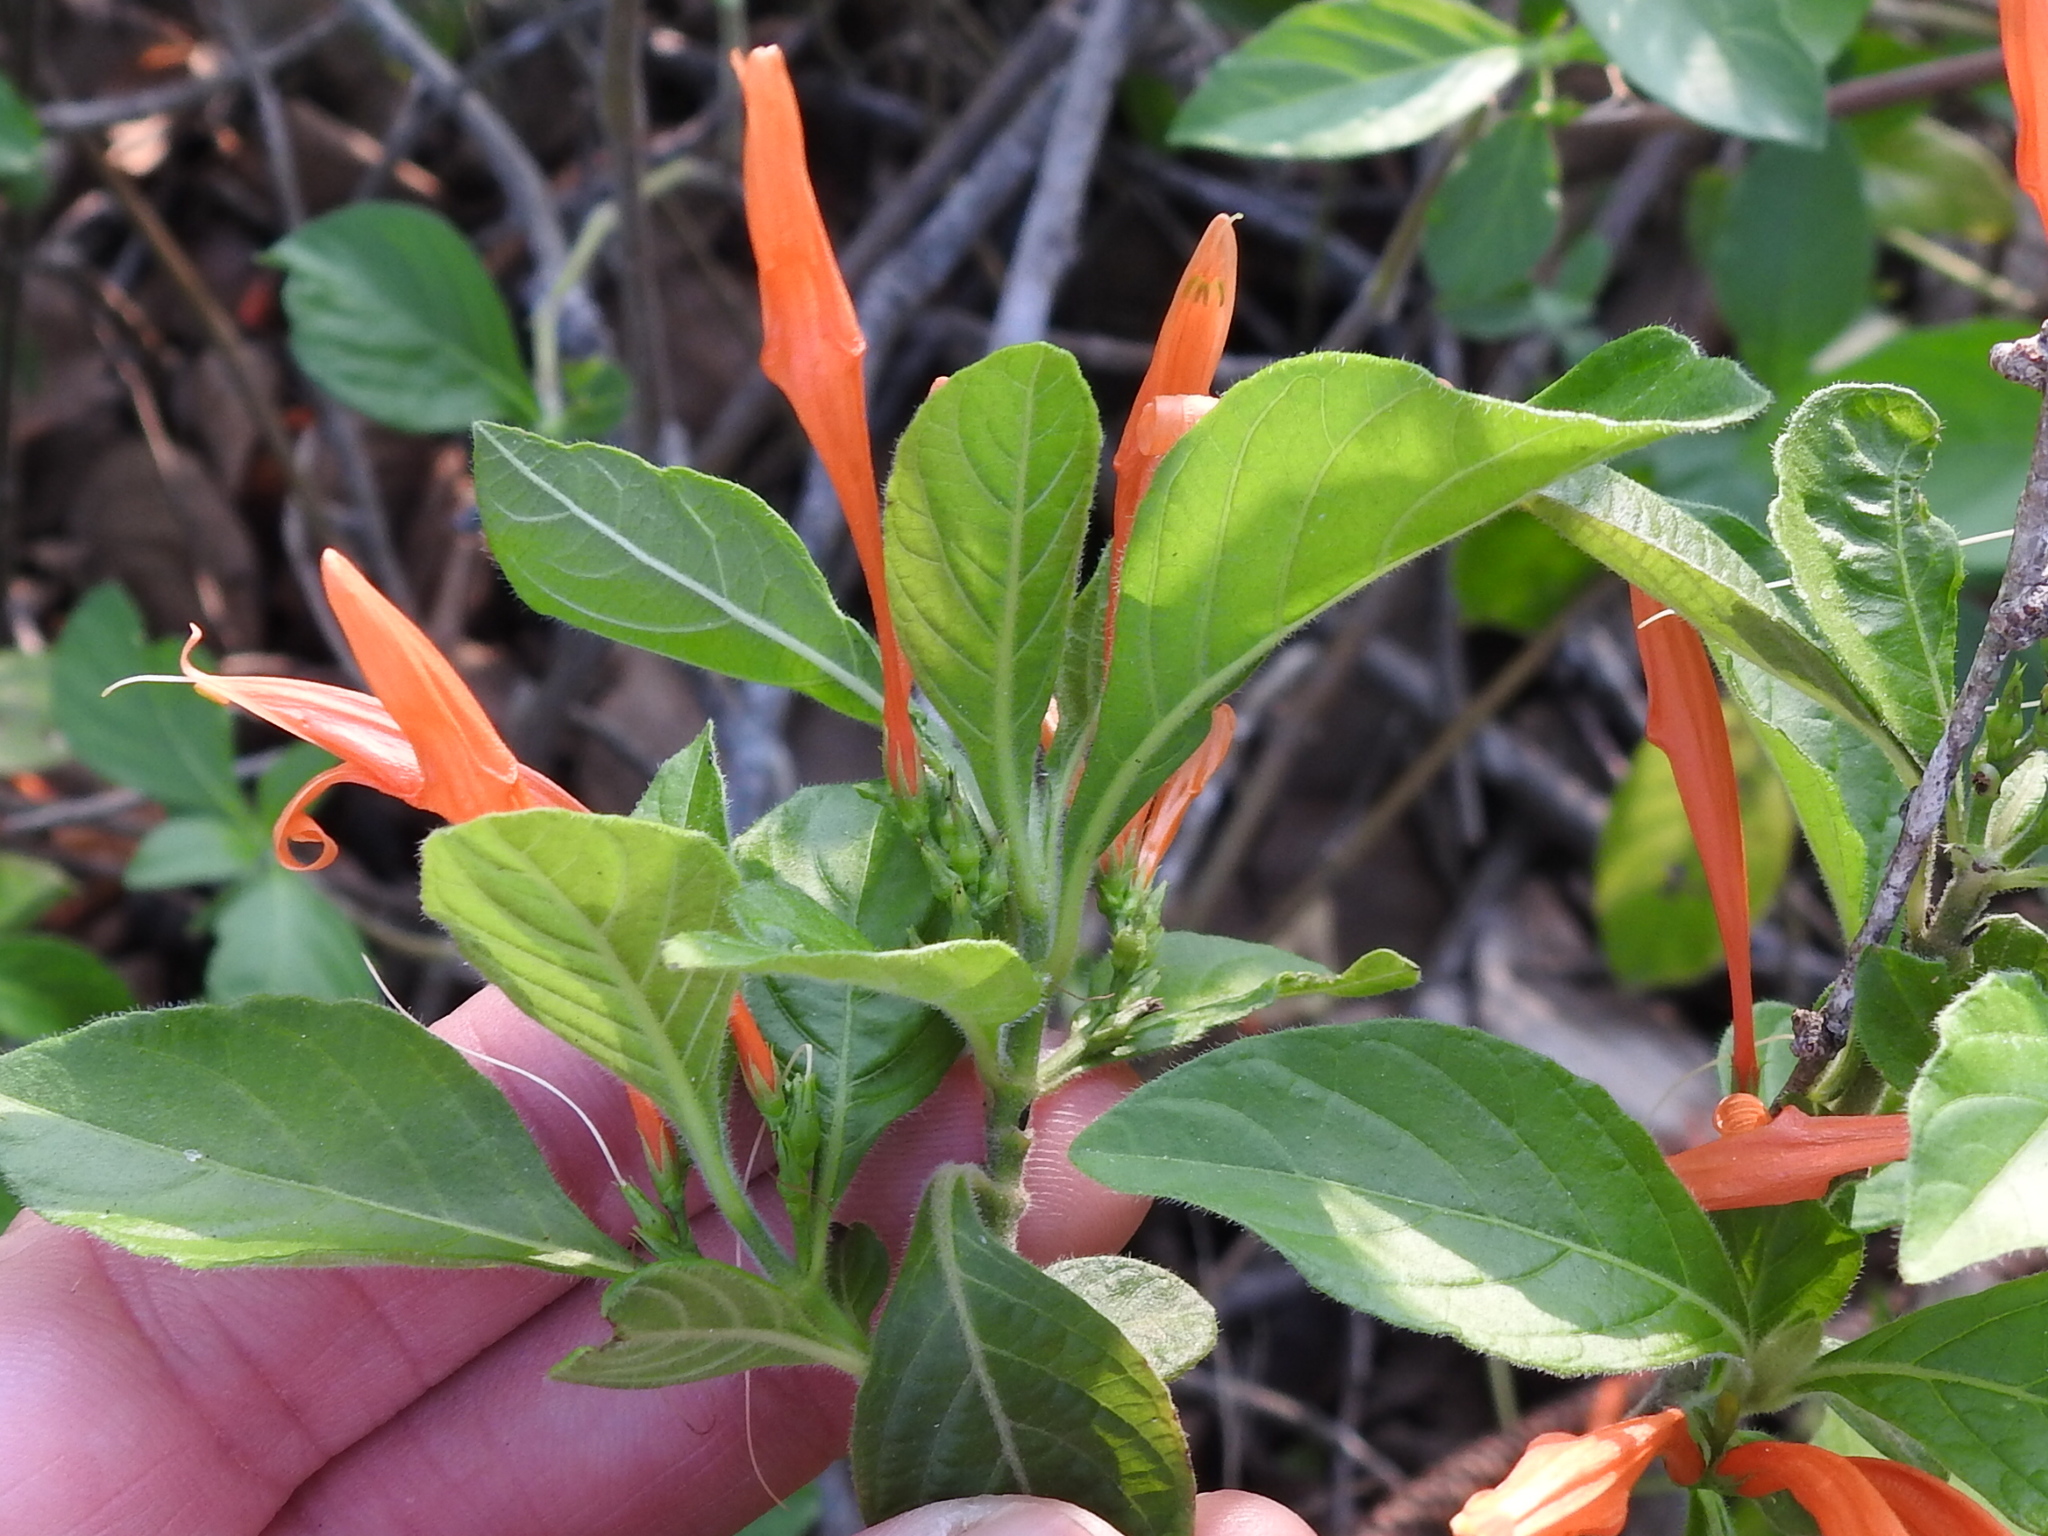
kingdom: Plantae
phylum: Tracheophyta
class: Magnoliopsida
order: Lamiales
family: Acanthaceae
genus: Justicia
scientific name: Justicia spicigera
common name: Mohintli
